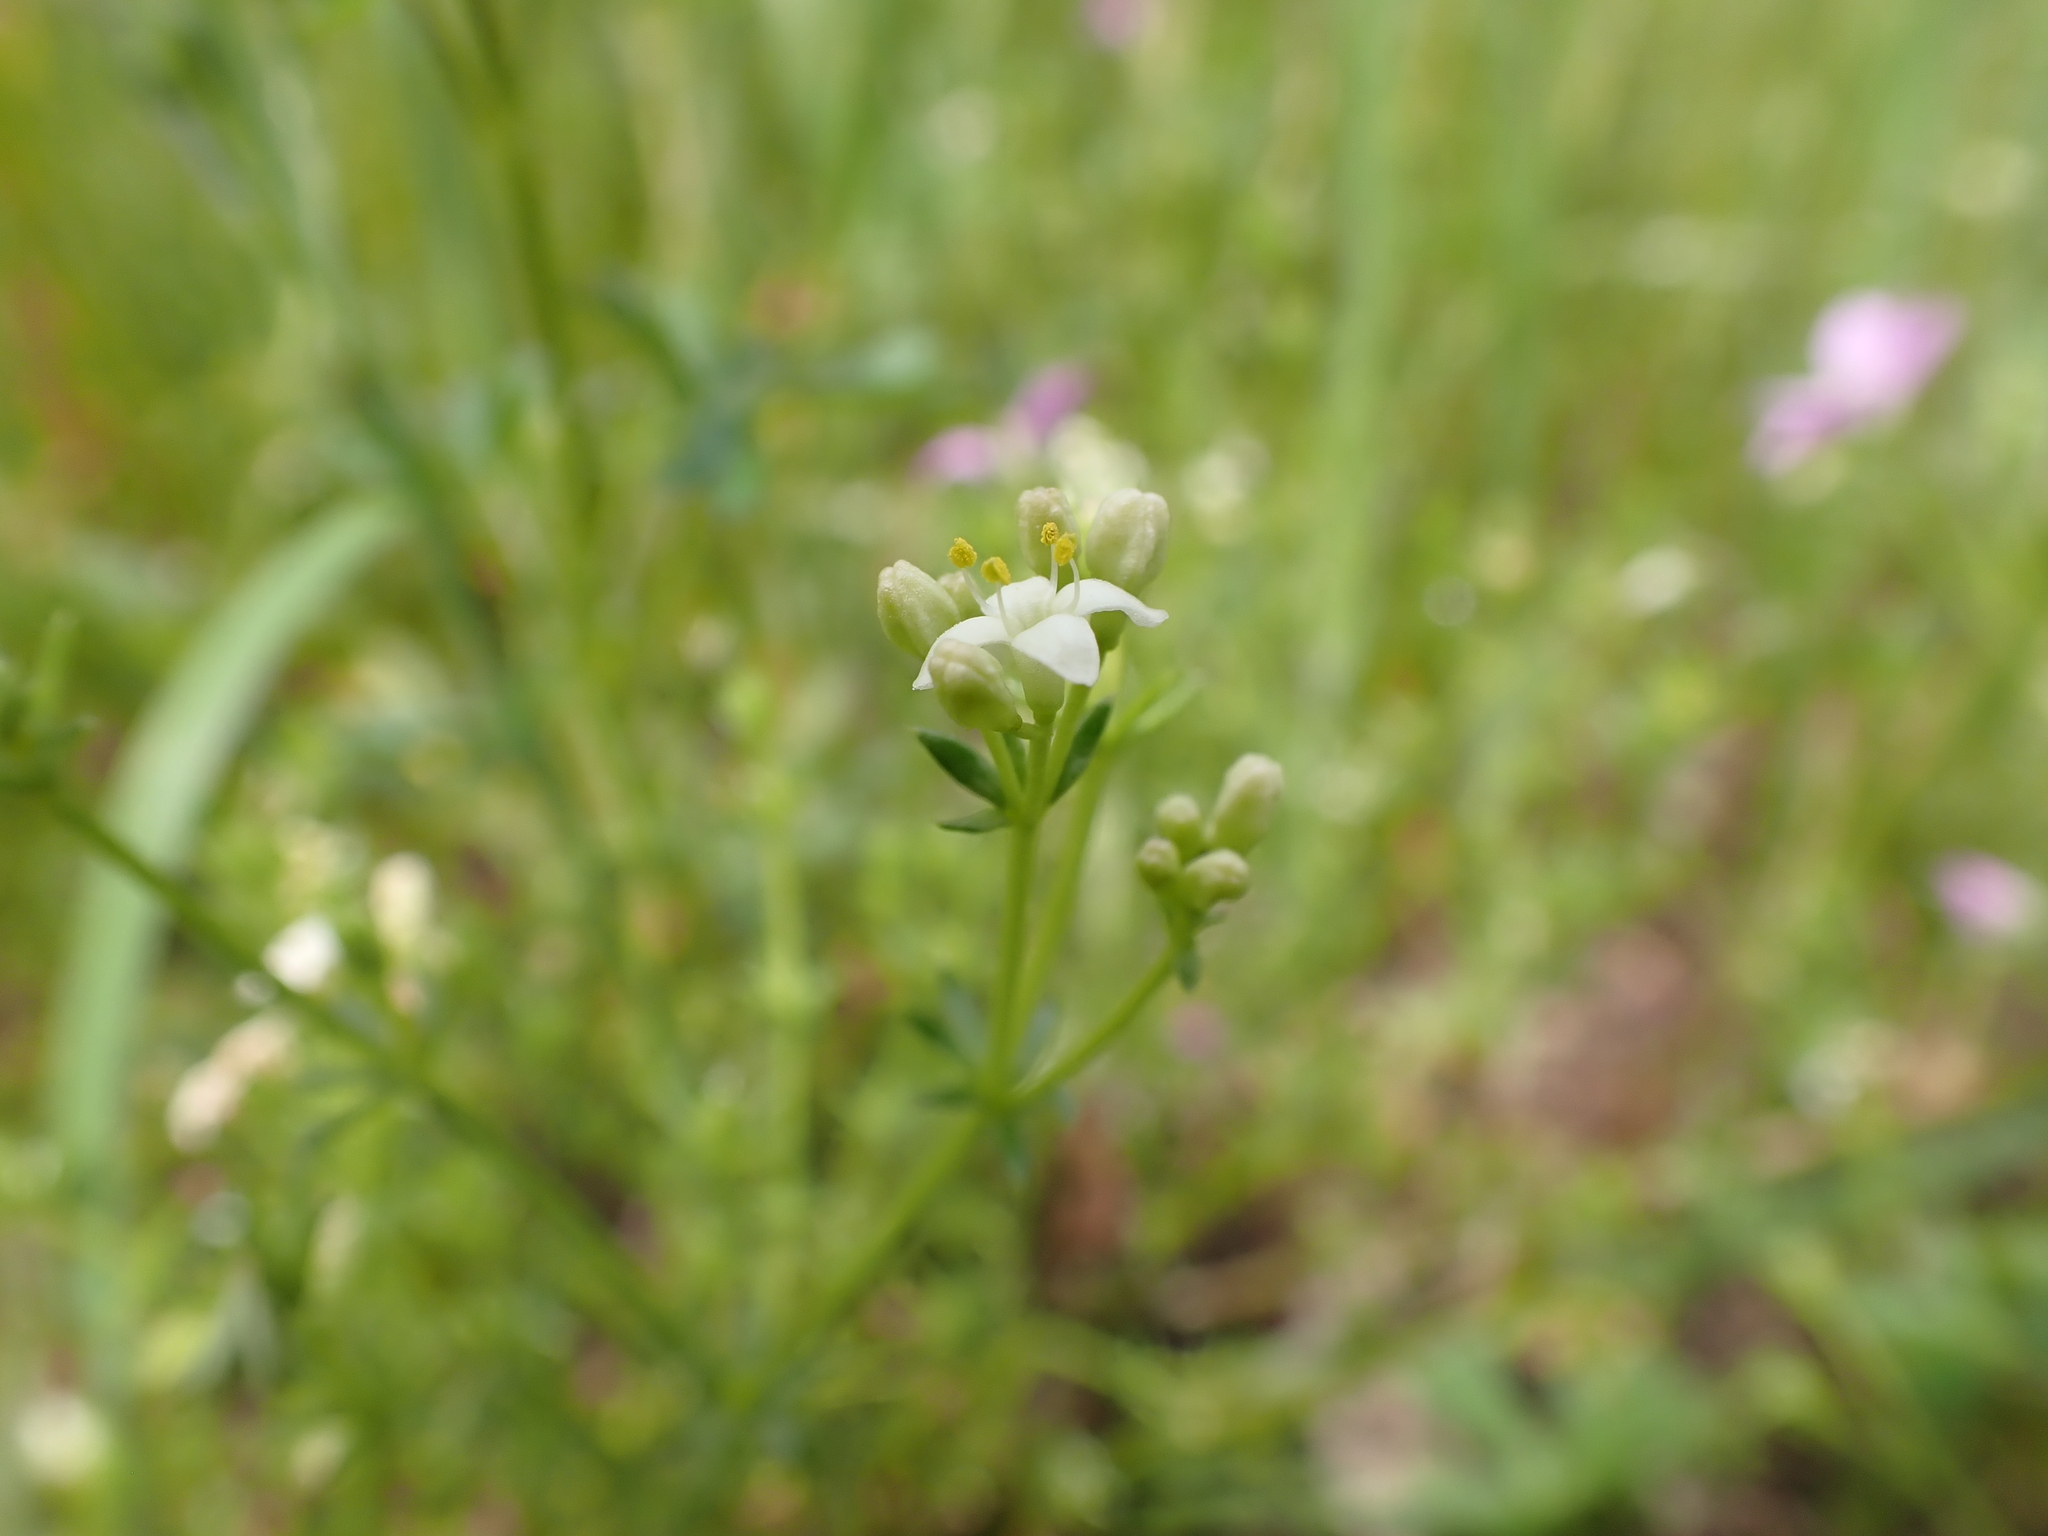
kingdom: Plantae
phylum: Tracheophyta
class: Magnoliopsida
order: Gentianales
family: Rubiaceae
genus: Asperula
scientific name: Asperula conferta
